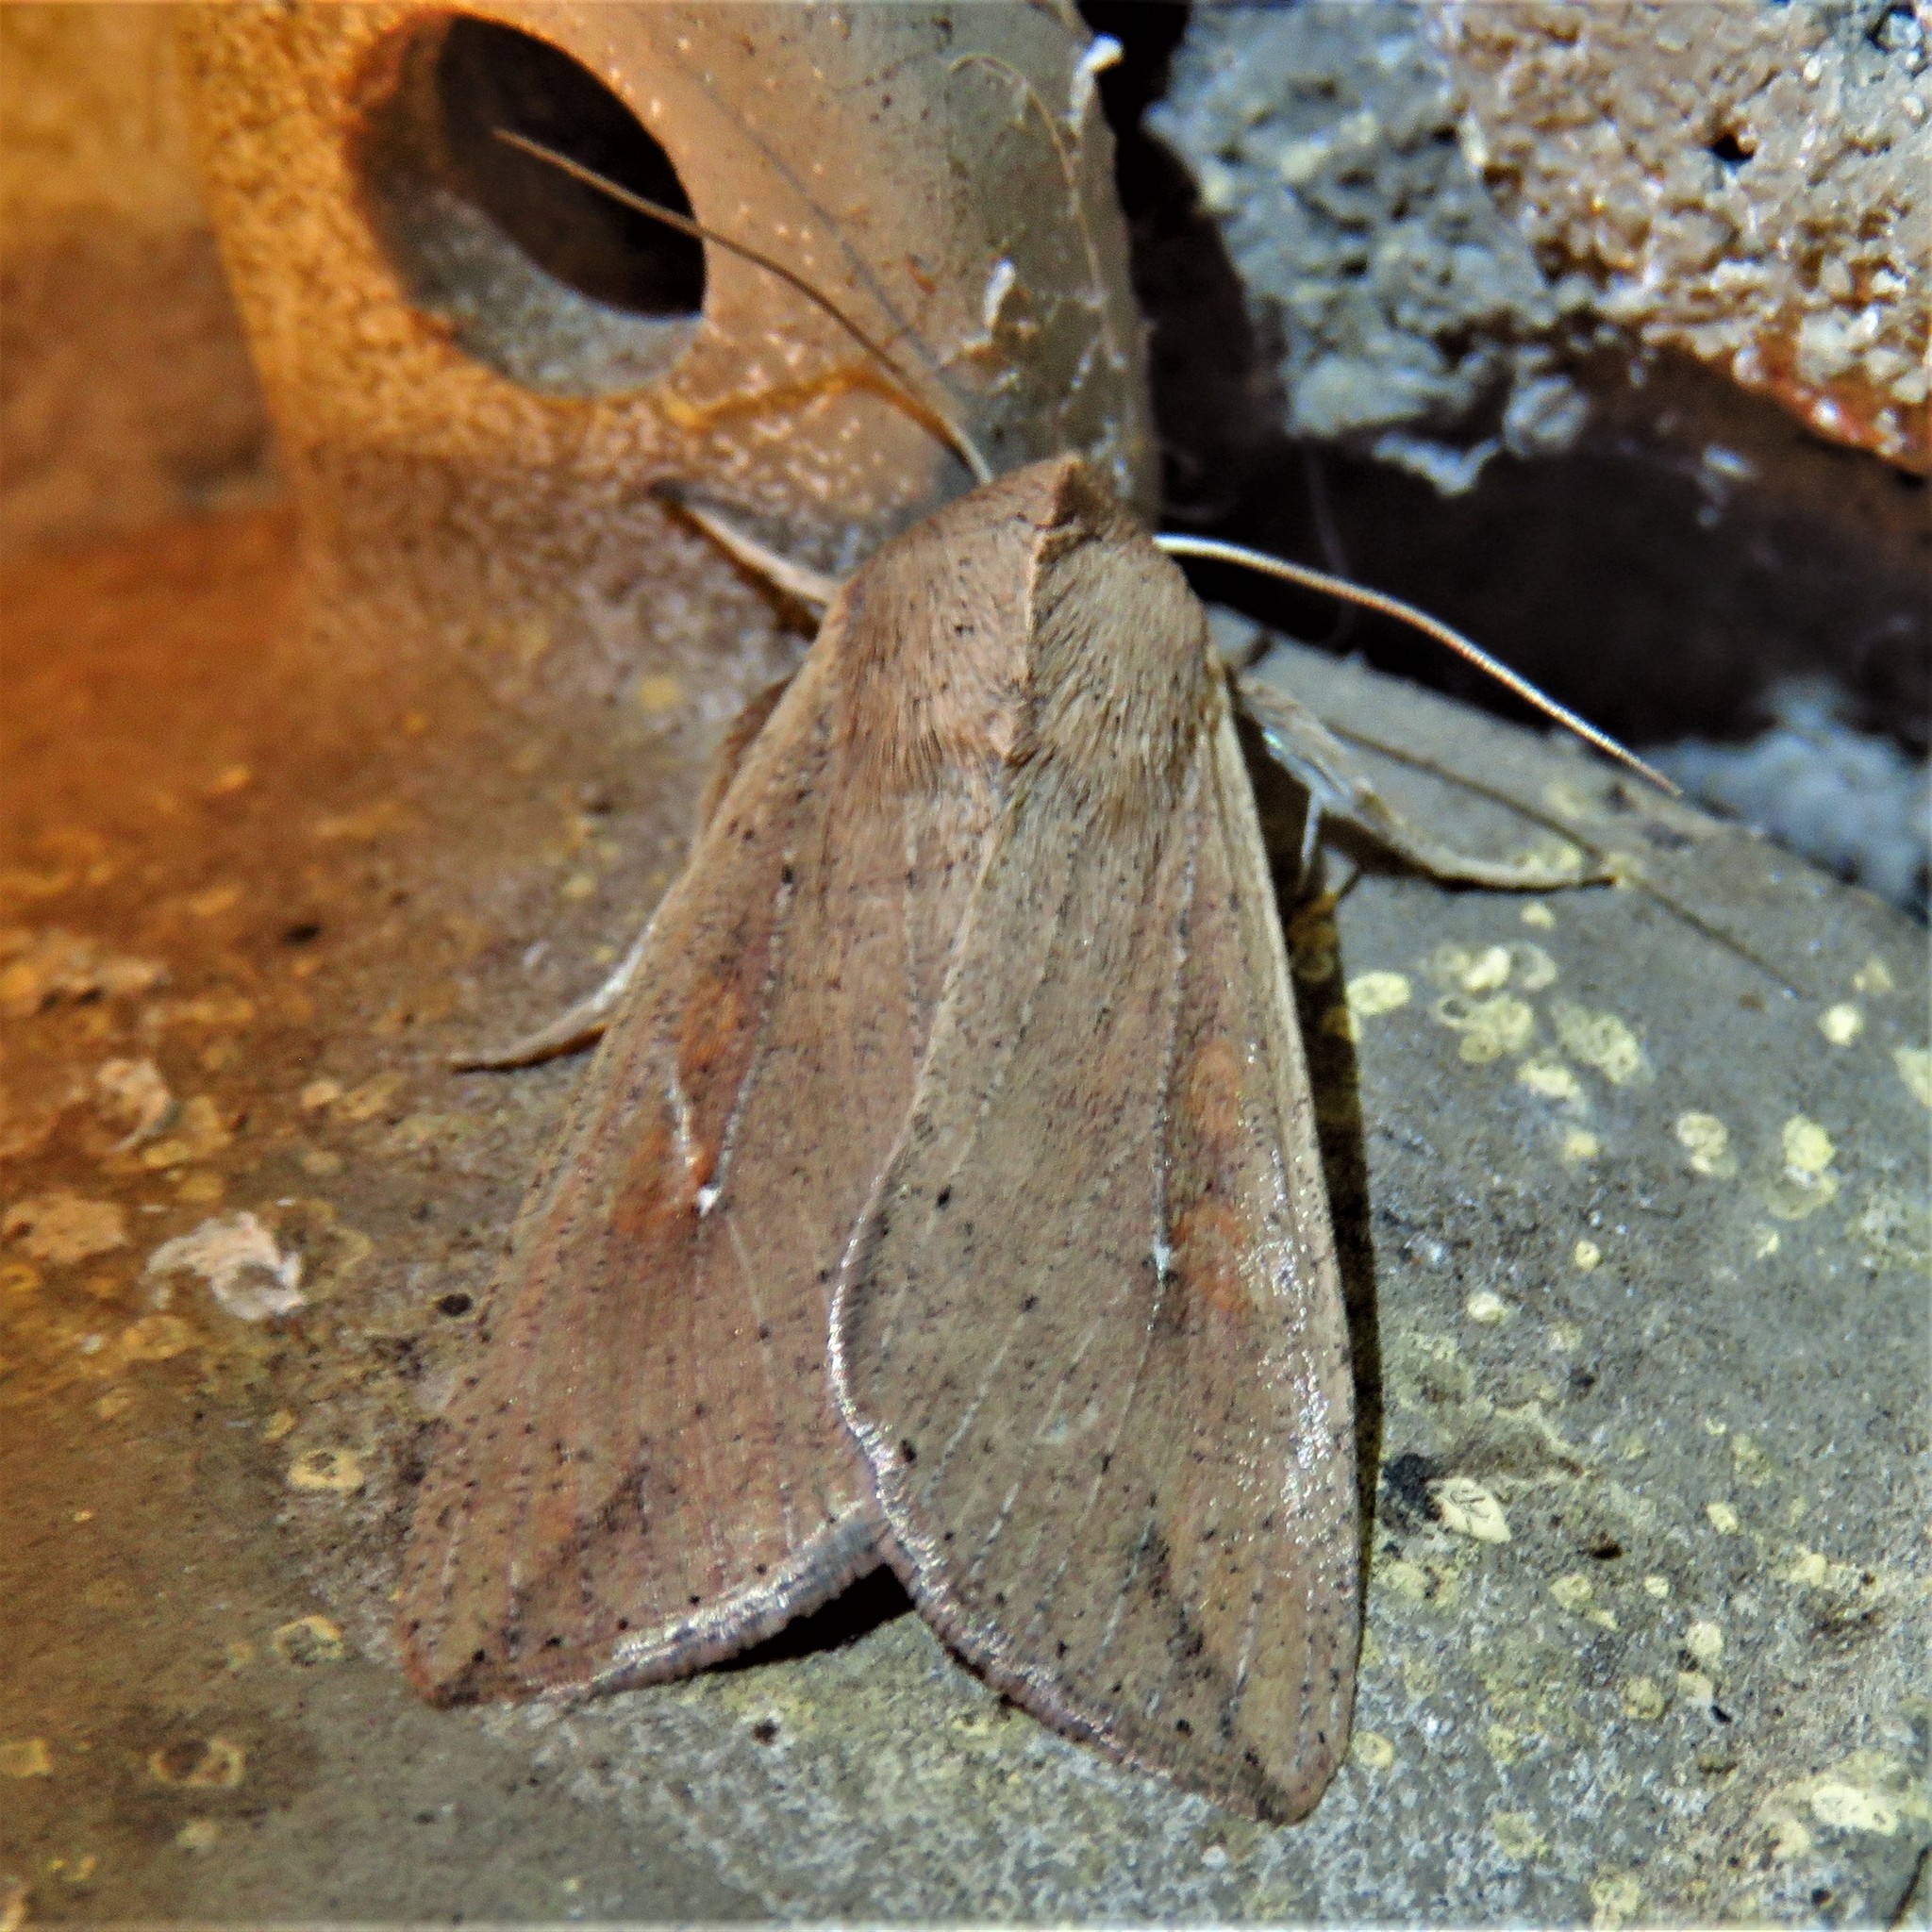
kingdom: Animalia
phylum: Arthropoda
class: Insecta
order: Lepidoptera
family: Noctuidae
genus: Mythimna
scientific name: Mythimna unipuncta
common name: White-speck
